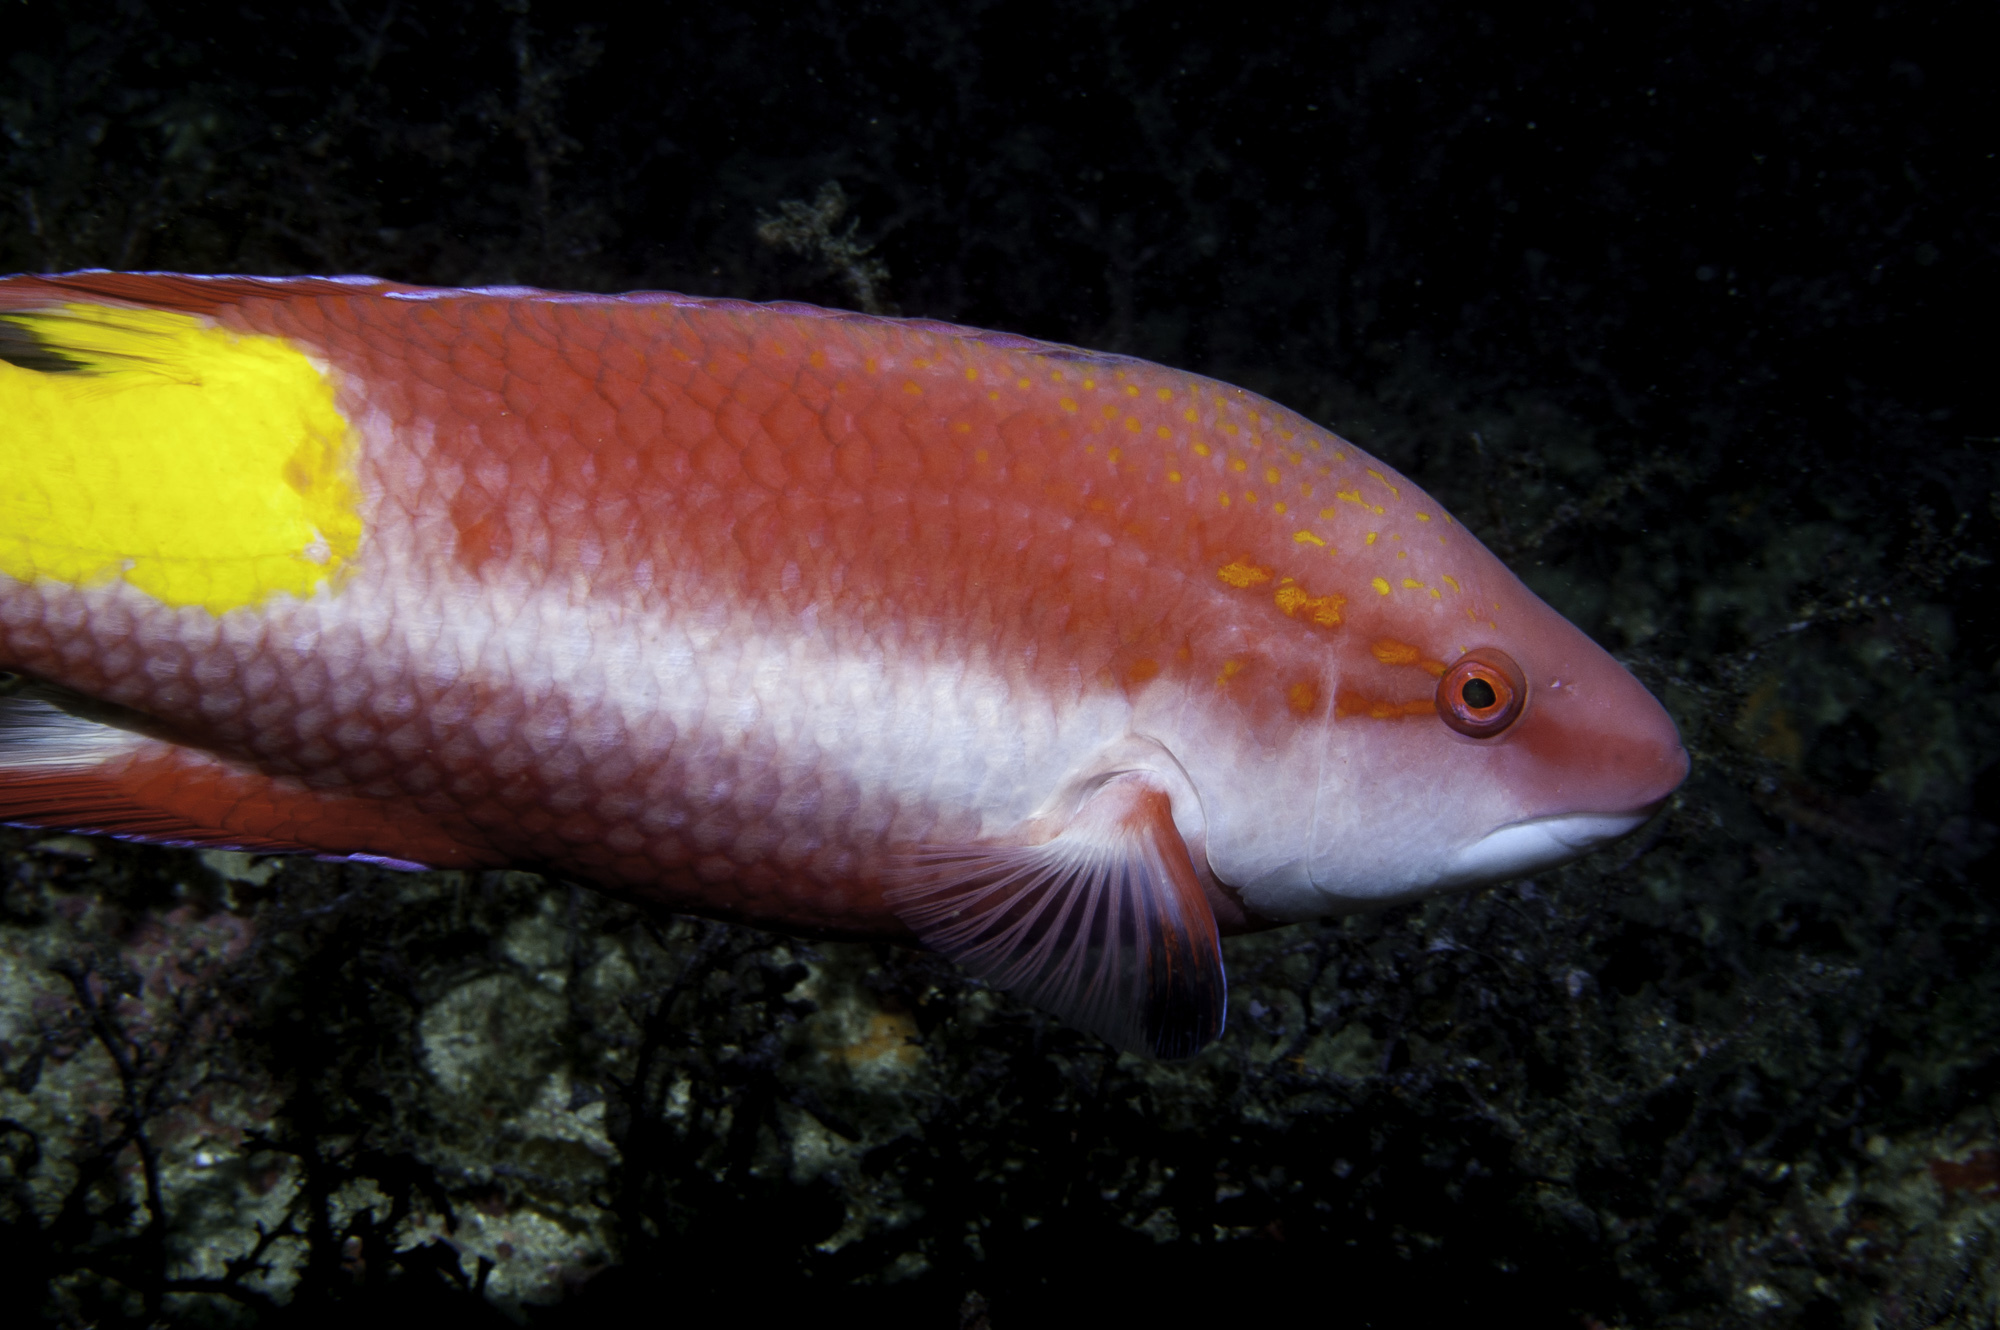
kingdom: Animalia
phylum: Chordata
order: Perciformes
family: Labridae
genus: Bodianus
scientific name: Bodianus pulchellus
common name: Spotfin hogfish
